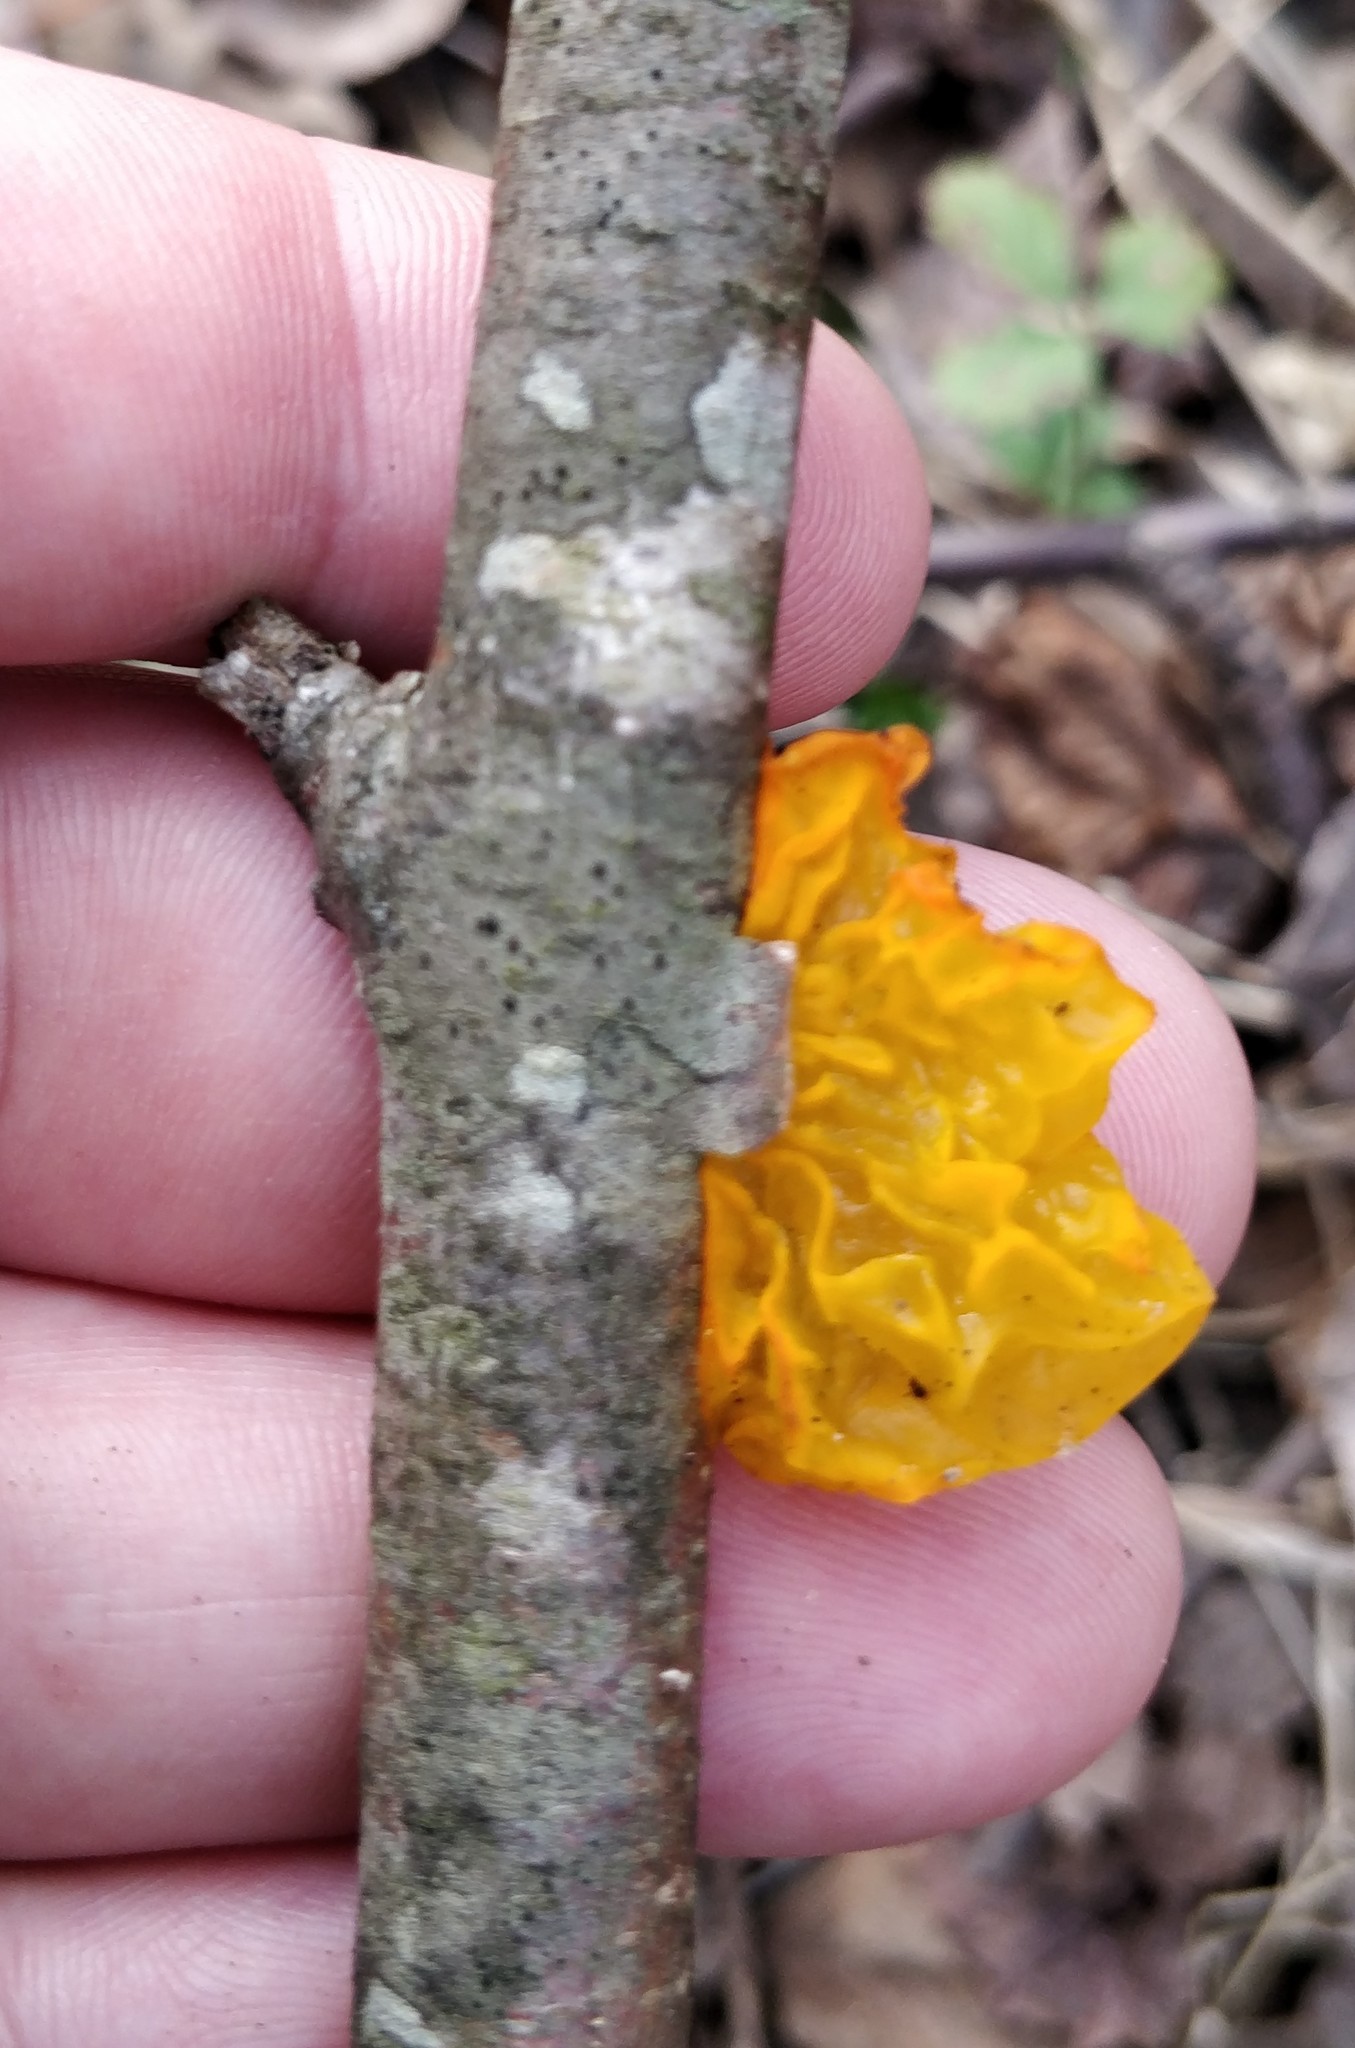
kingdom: Fungi
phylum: Basidiomycota
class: Tremellomycetes
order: Tremellales
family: Tremellaceae
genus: Tremella
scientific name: Tremella mesenterica
